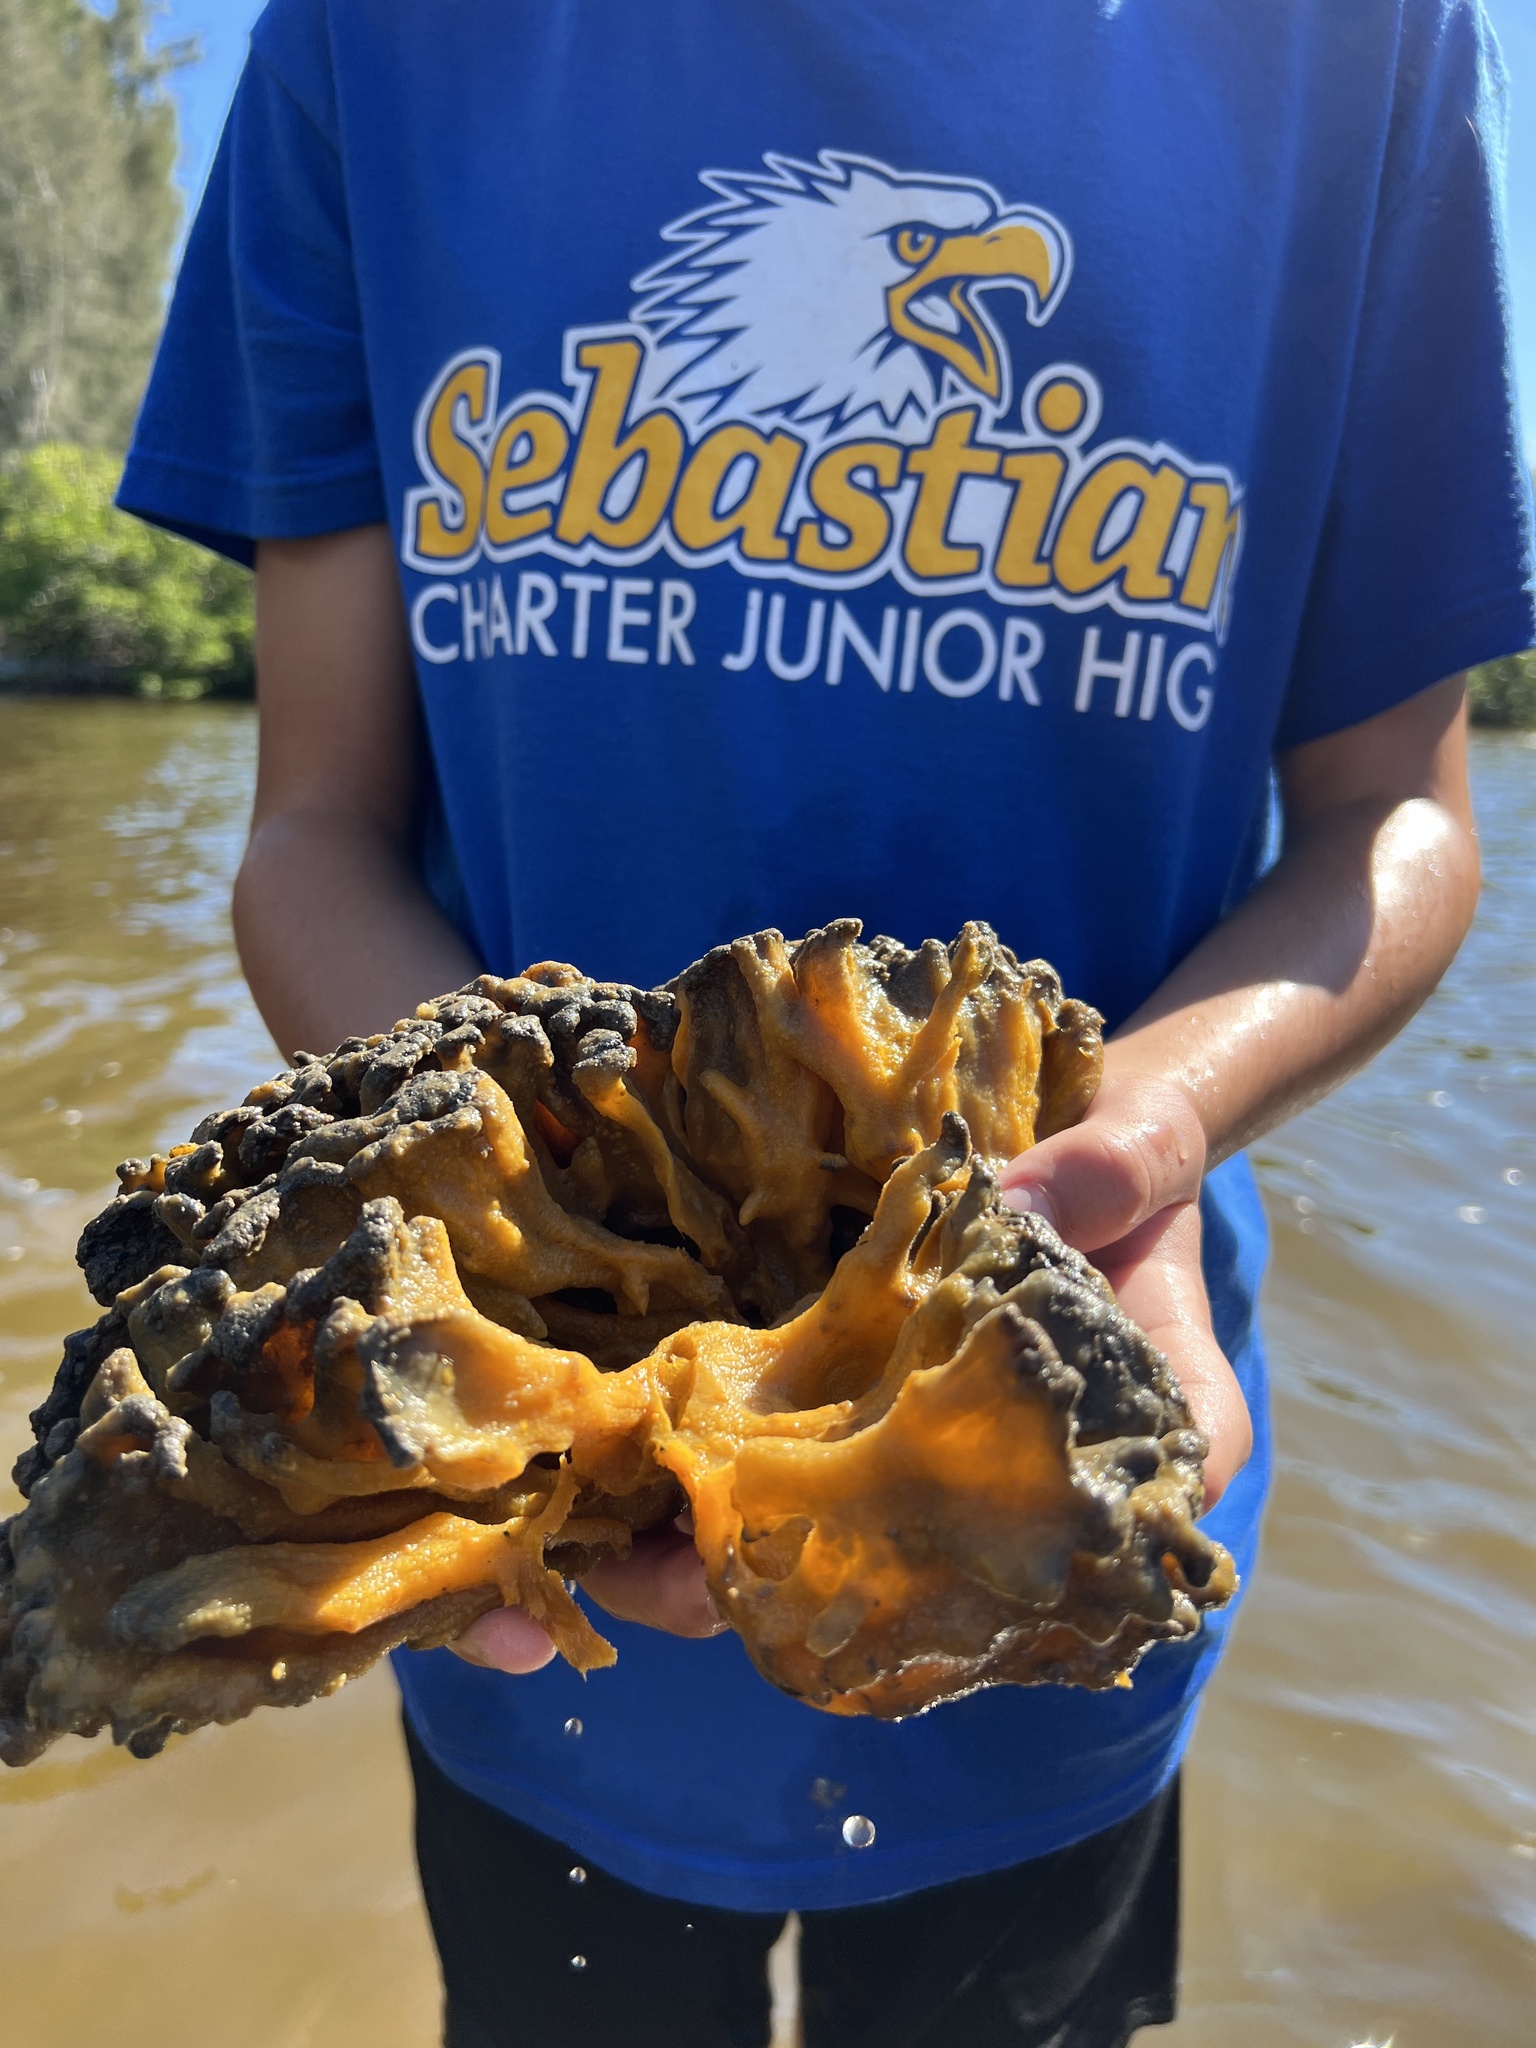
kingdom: Animalia
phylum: Porifera
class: Demospongiae
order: Suberitida
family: Suberitidae
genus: Suberites
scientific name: Suberites aurantiacus
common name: Lobate sponge
